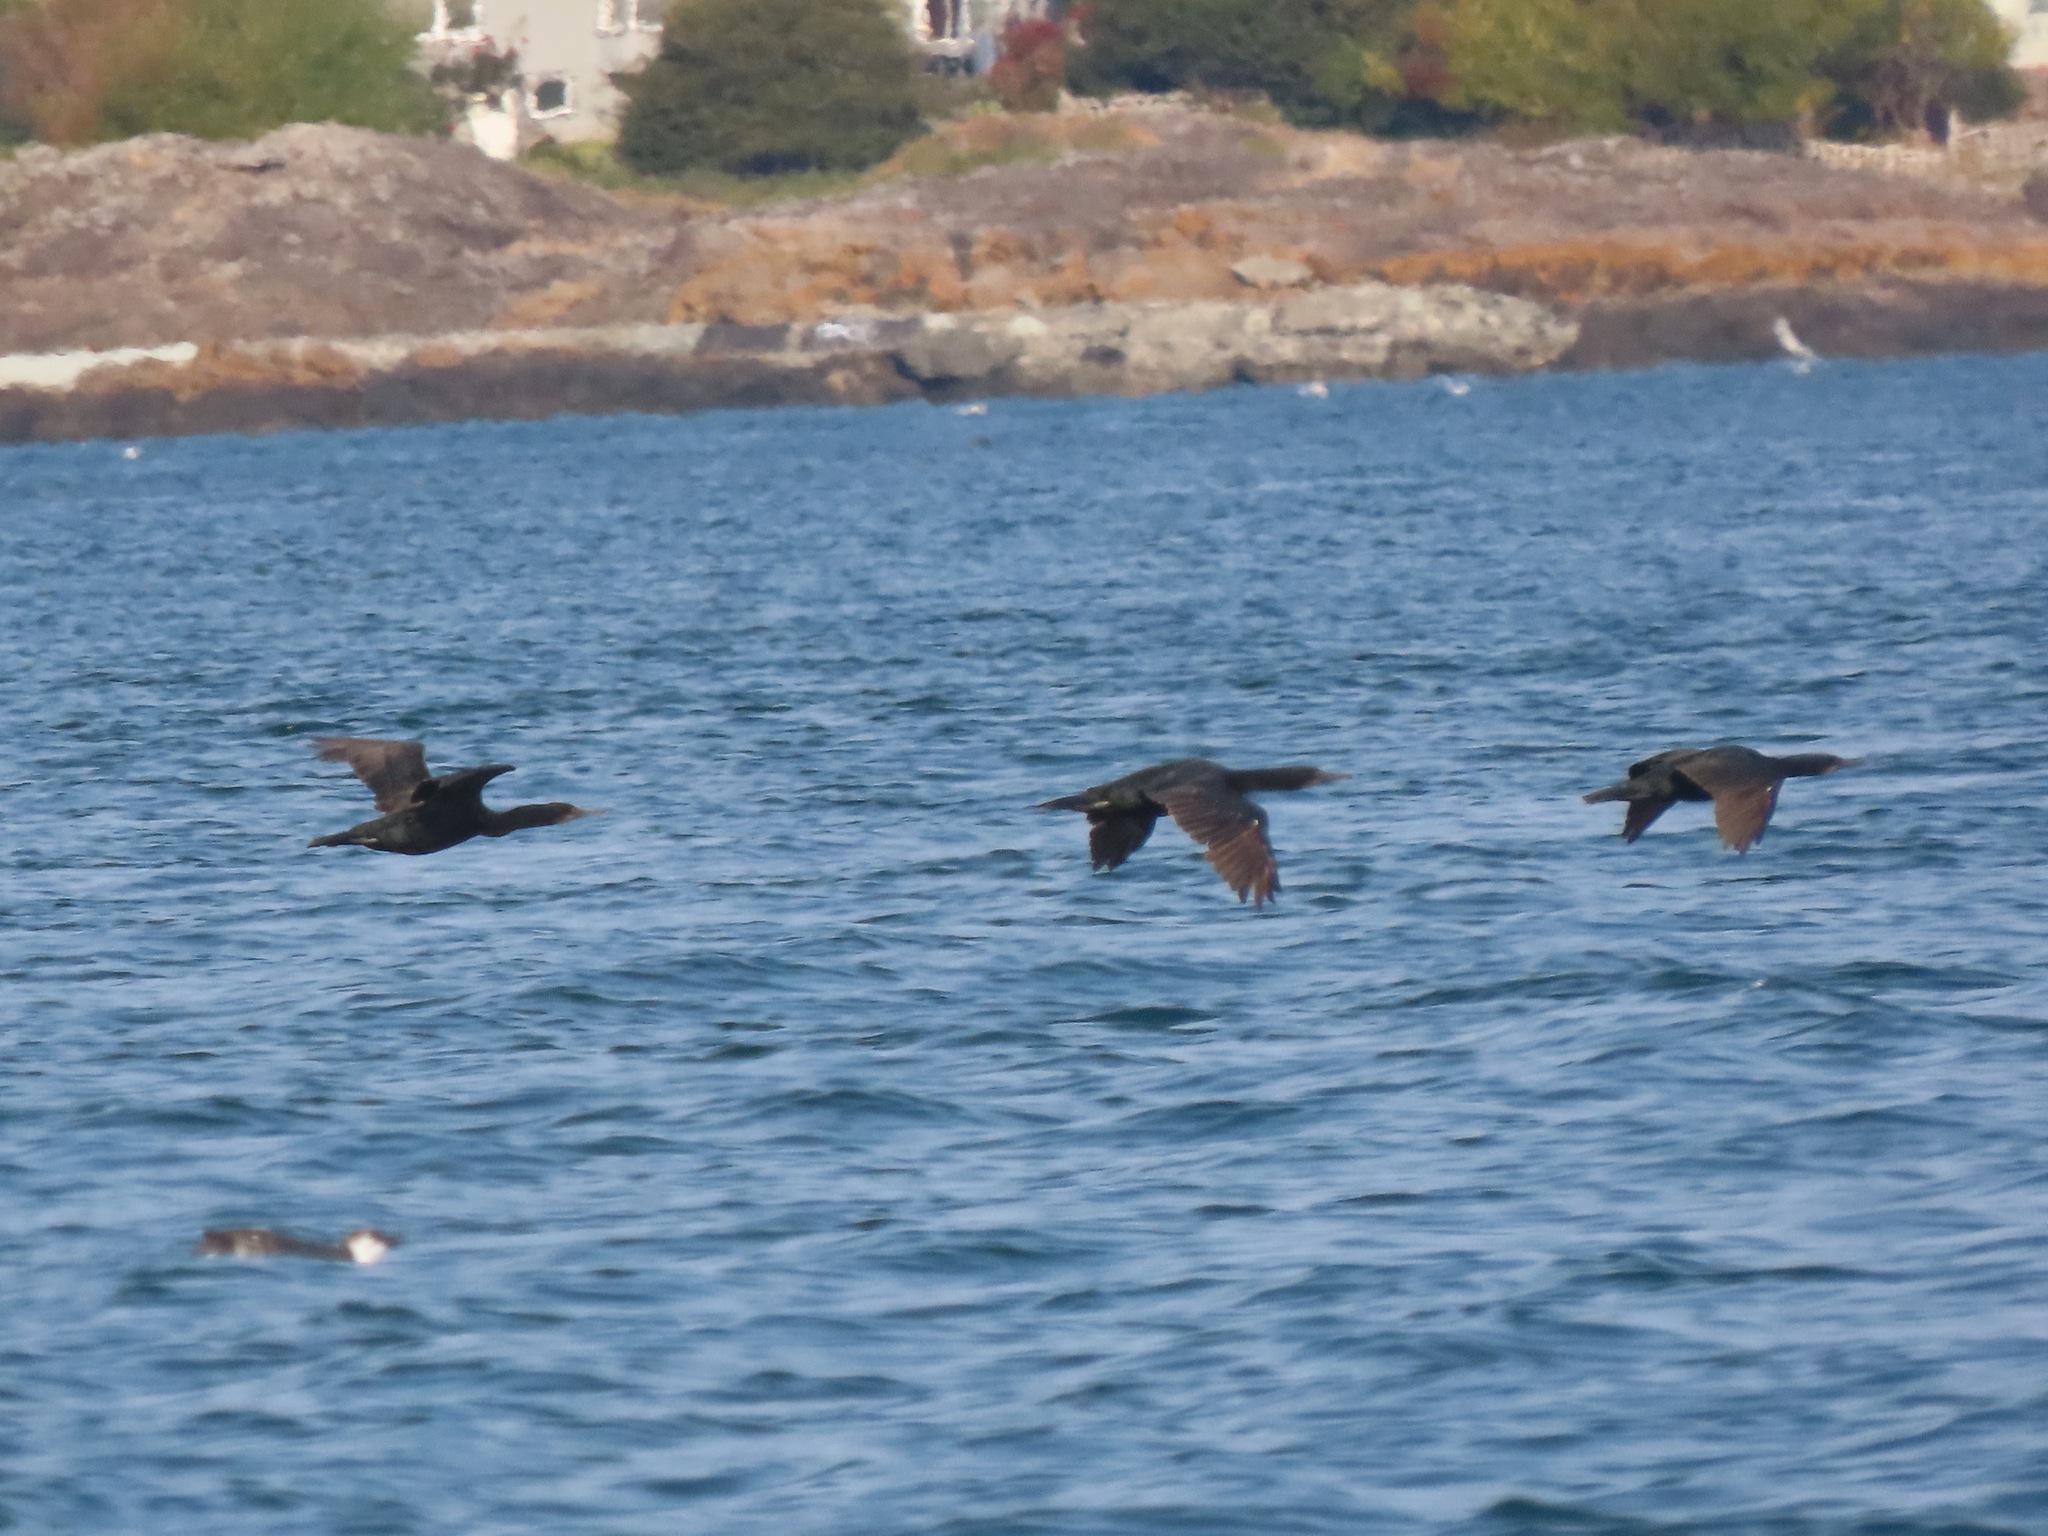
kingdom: Animalia
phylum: Chordata
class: Aves
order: Suliformes
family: Phalacrocoracidae
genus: Urile
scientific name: Urile penicillatus
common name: Brandt's cormorant
